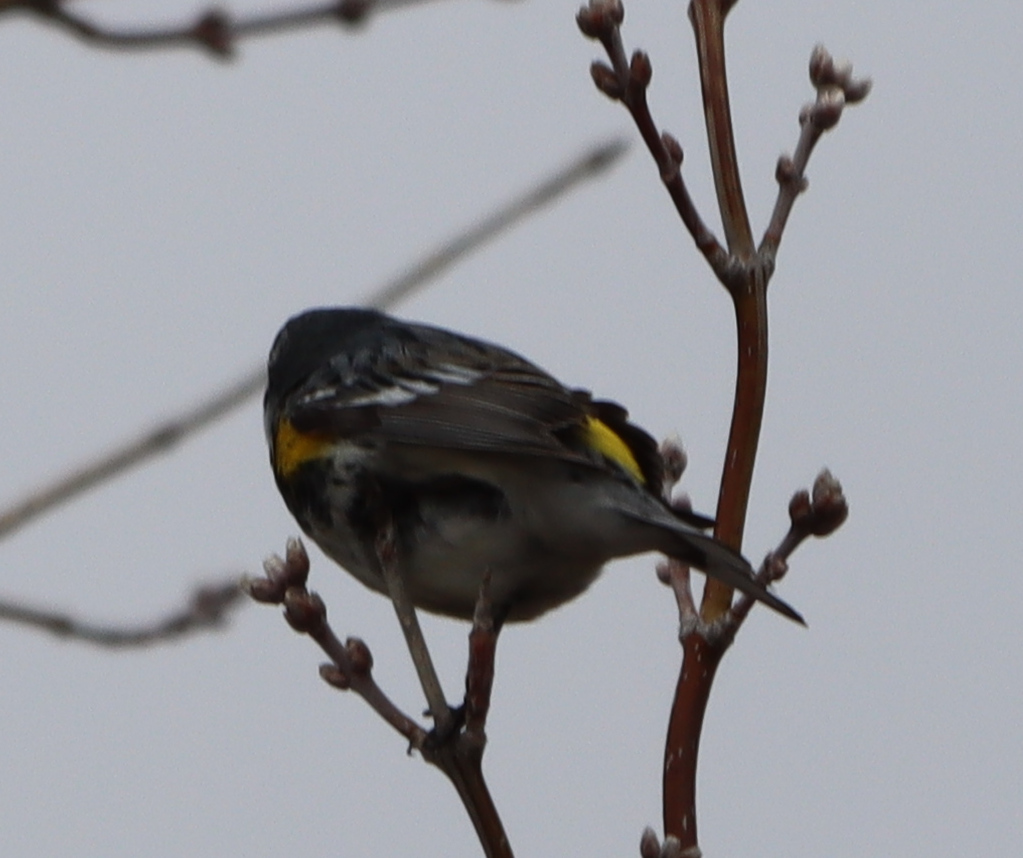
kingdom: Animalia
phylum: Chordata
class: Aves
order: Passeriformes
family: Parulidae
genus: Setophaga
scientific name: Setophaga coronata
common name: Myrtle warbler
